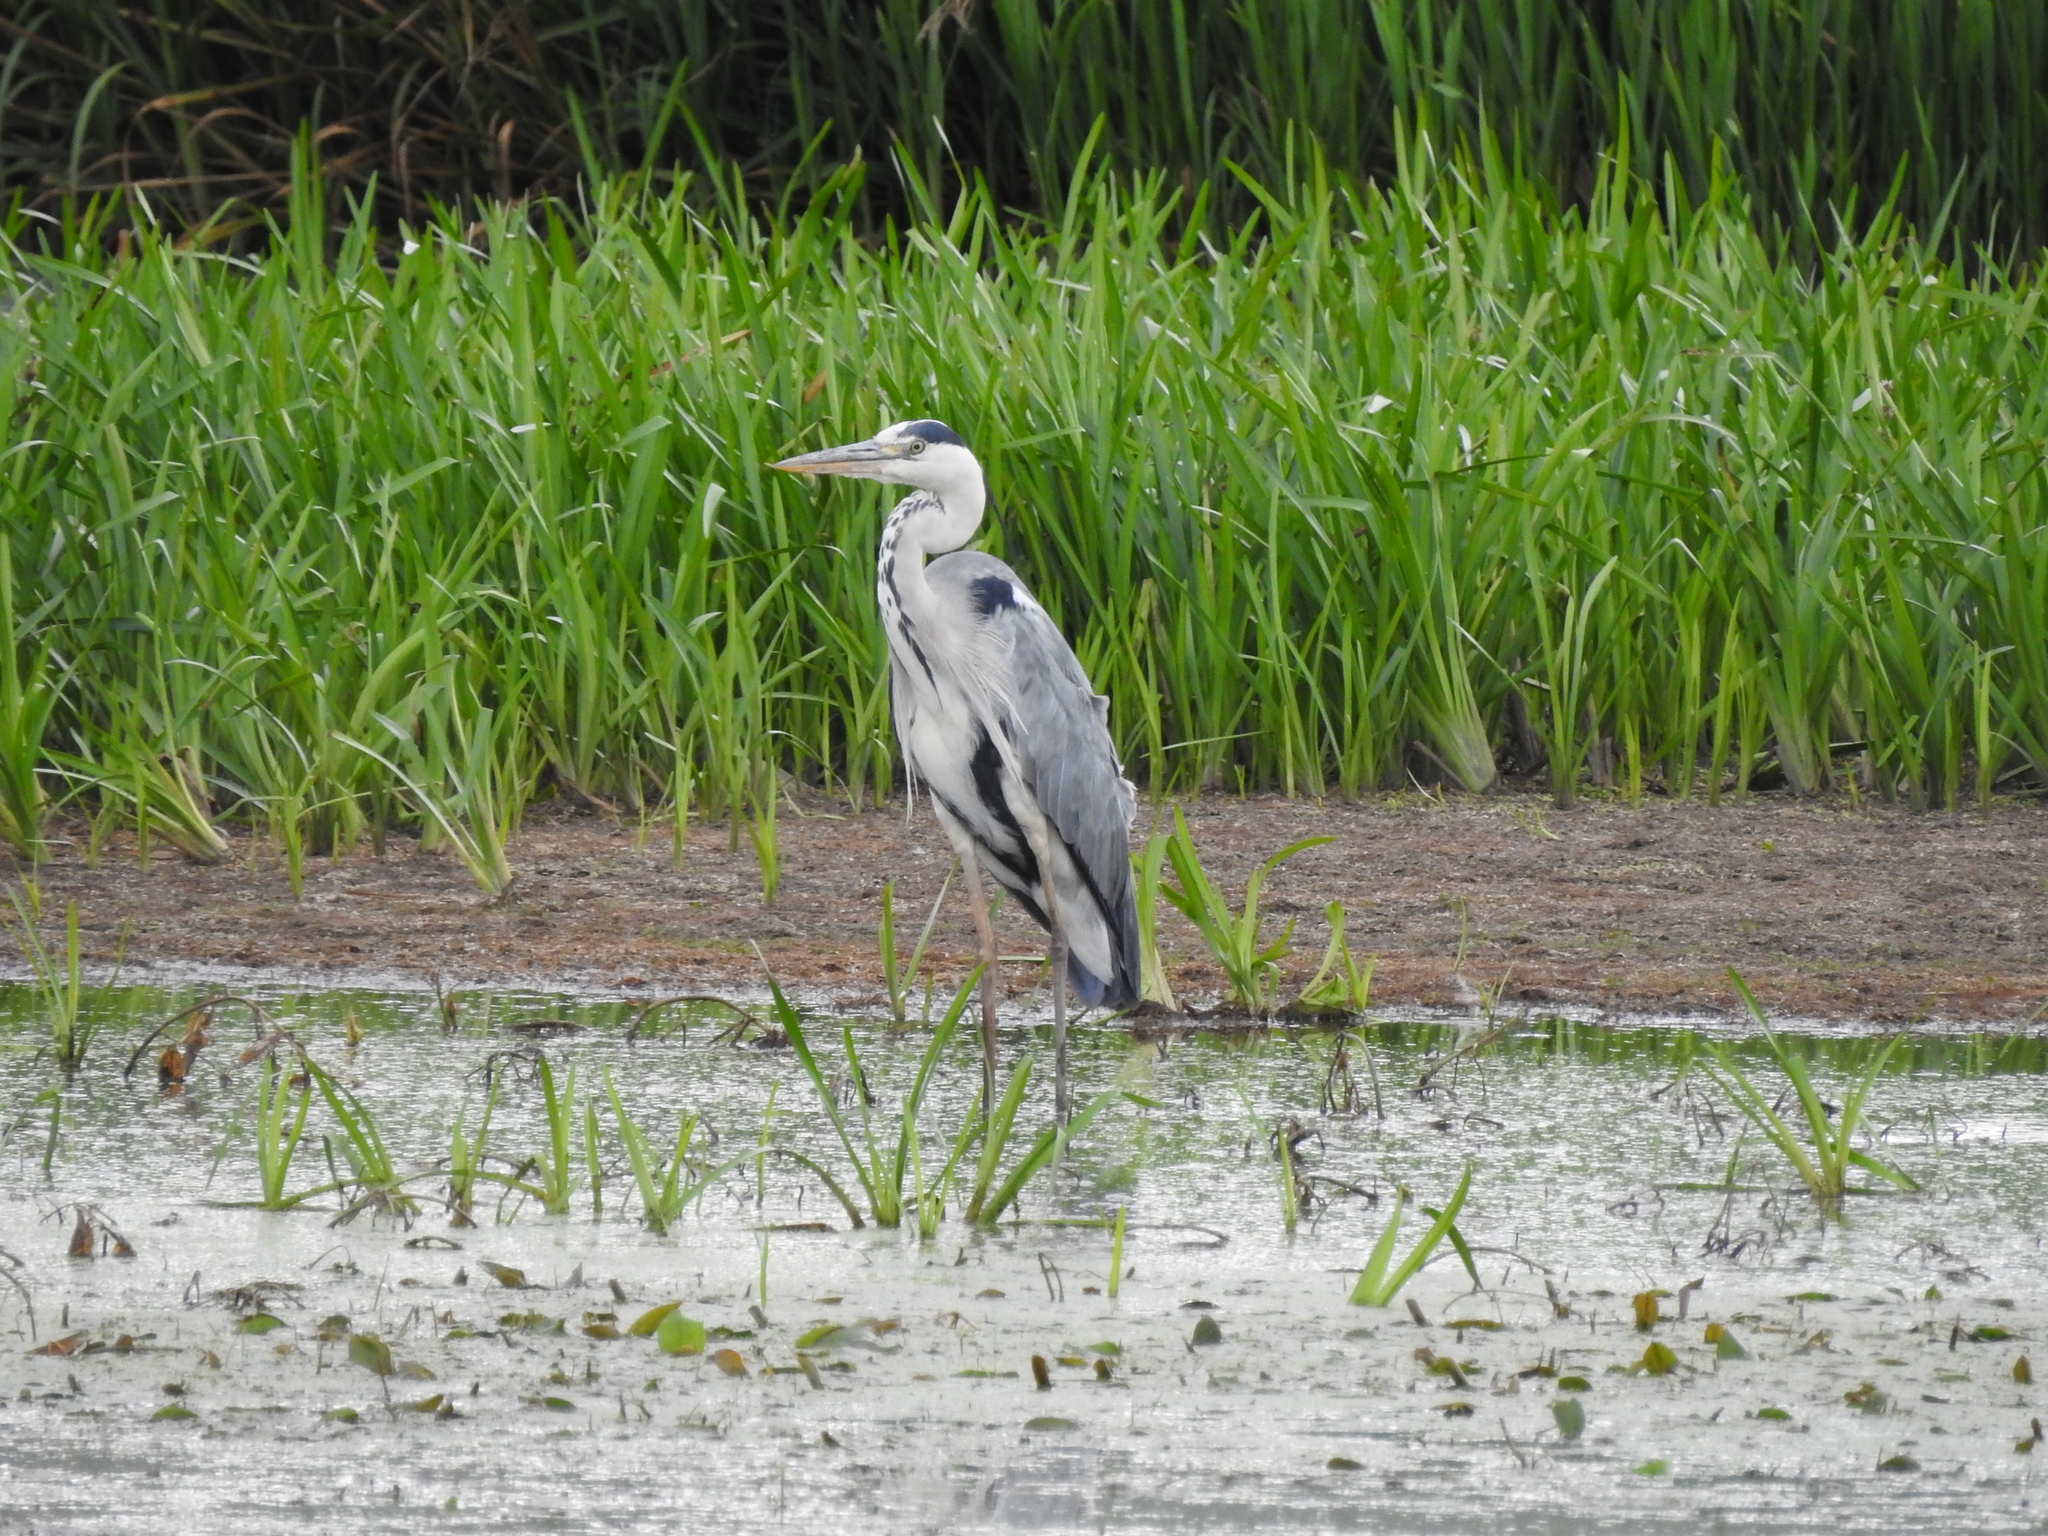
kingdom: Animalia
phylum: Chordata
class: Aves
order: Pelecaniformes
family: Ardeidae
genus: Ardea
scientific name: Ardea cinerea
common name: Grey heron
